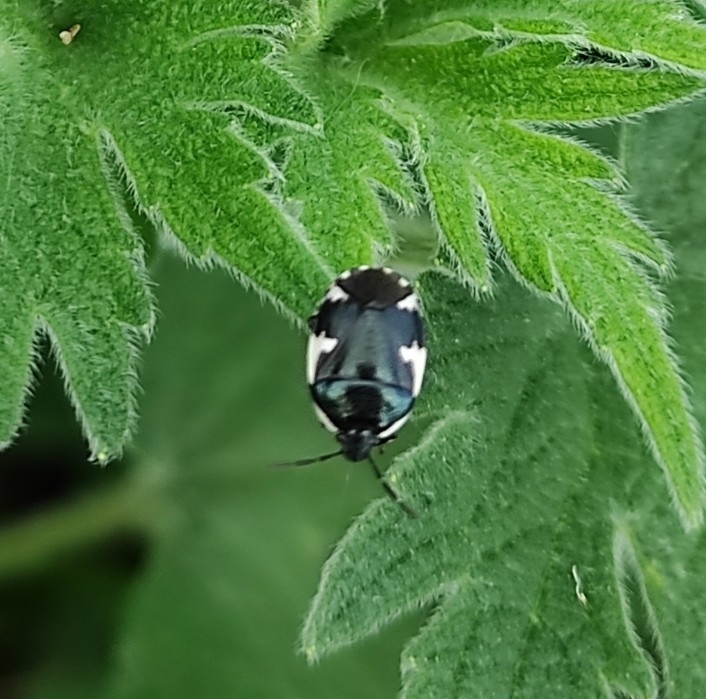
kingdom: Animalia
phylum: Arthropoda
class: Insecta
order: Hemiptera
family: Cydnidae
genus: Tritomegas
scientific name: Tritomegas sexmaculatus
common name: Rambur's pied shieldbug
